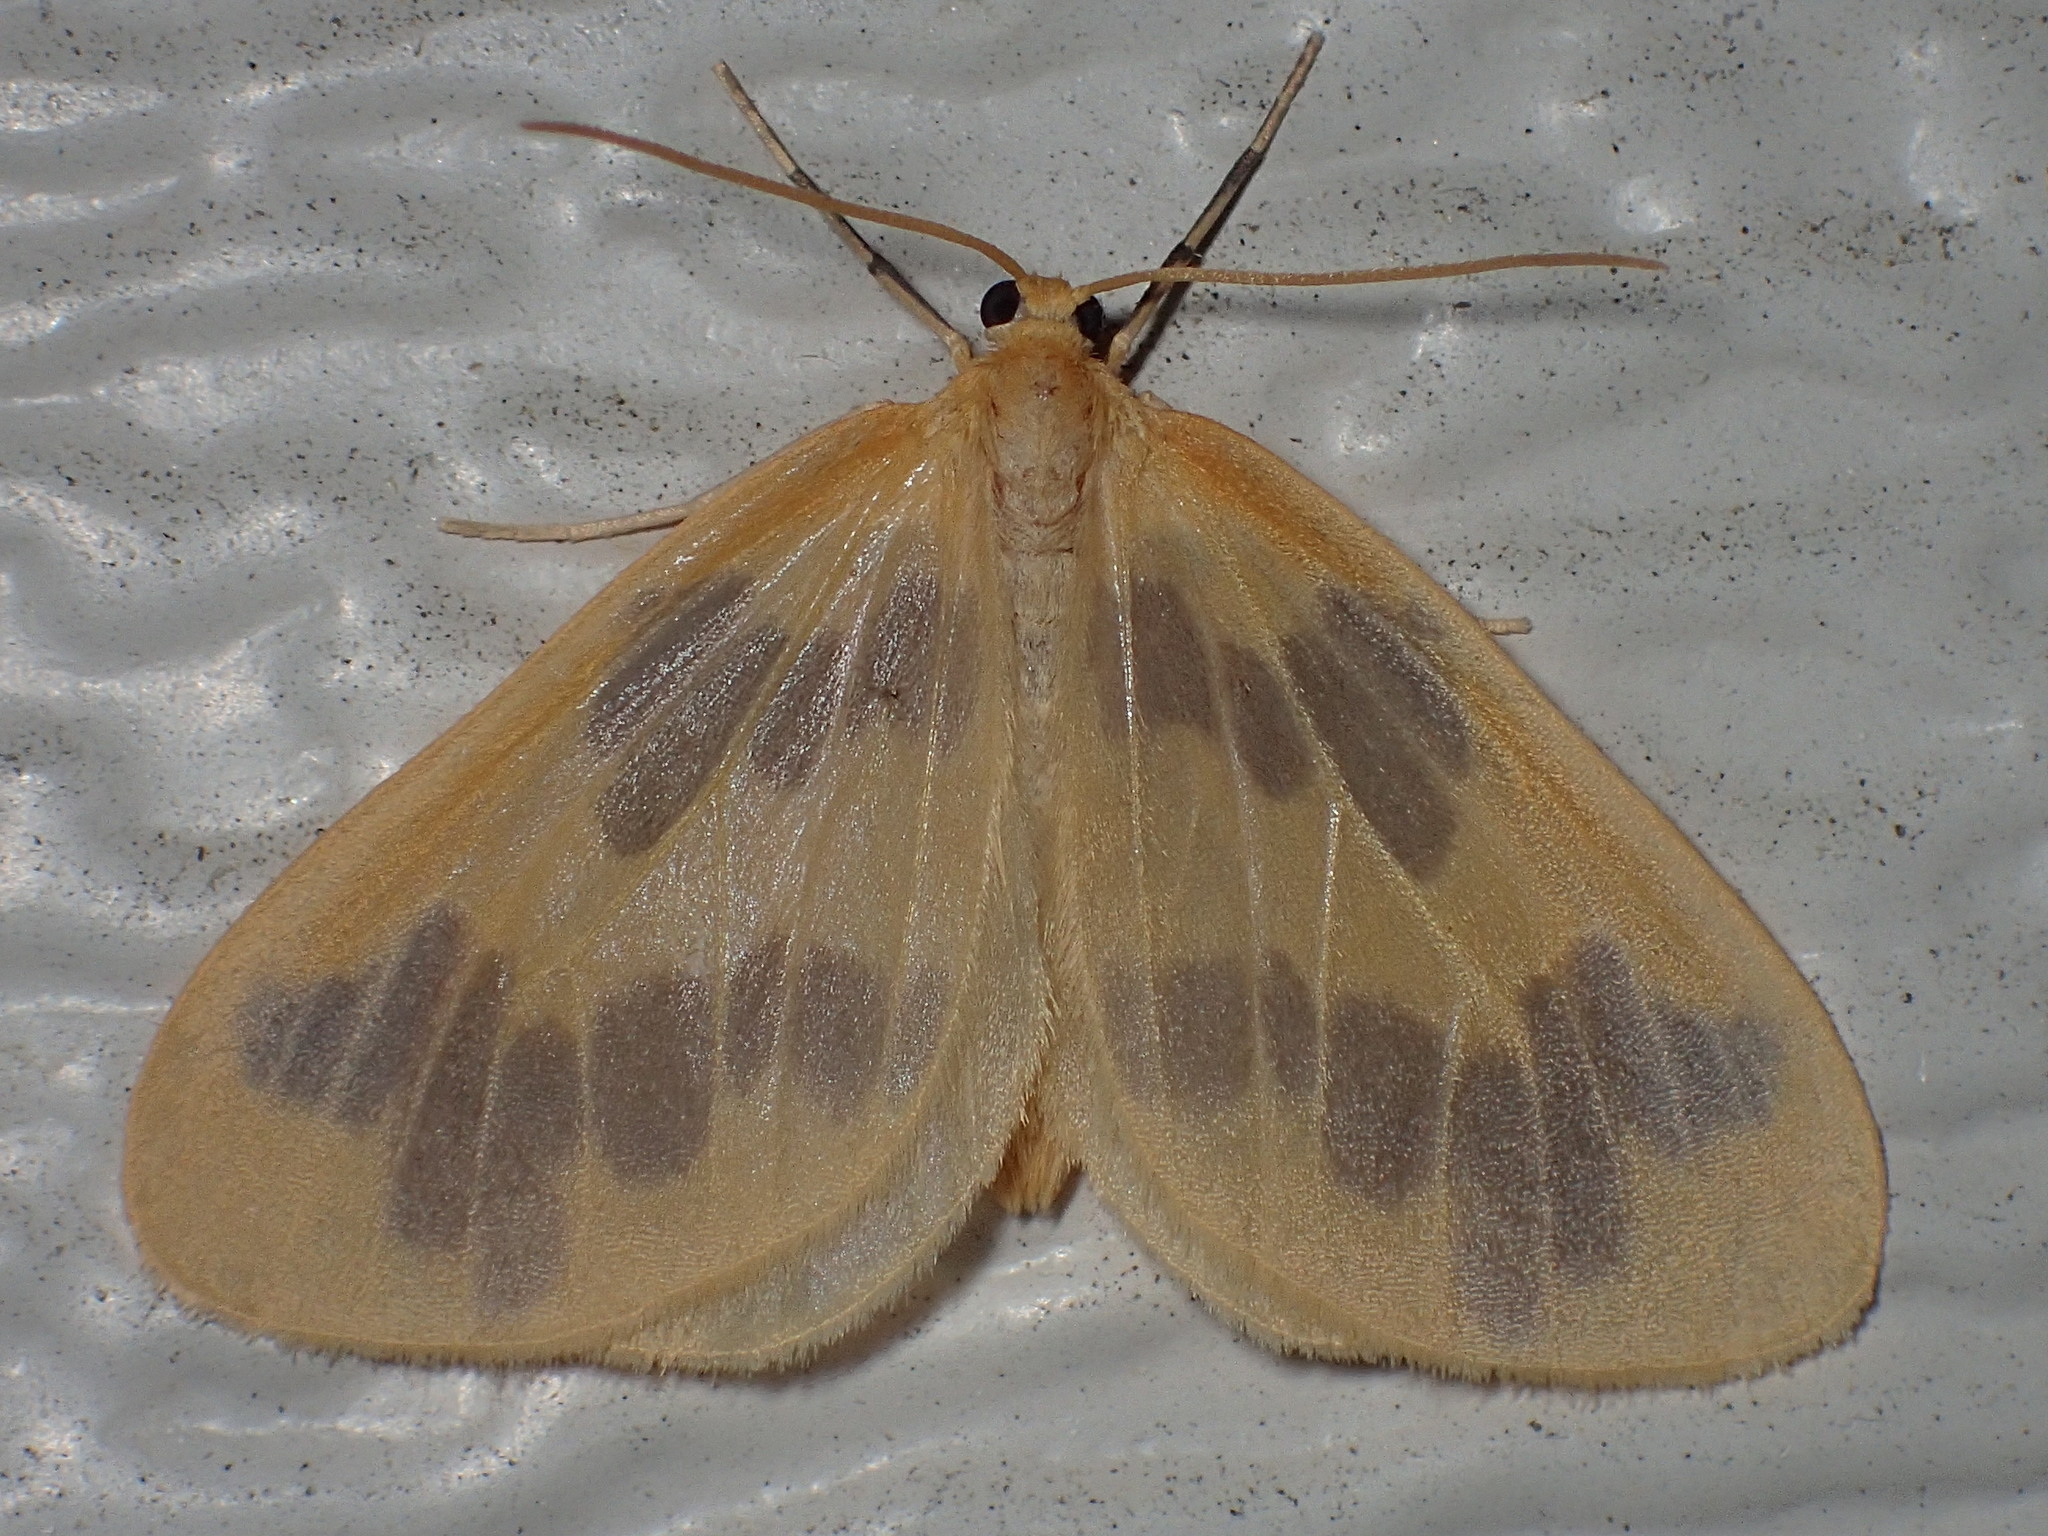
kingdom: Animalia
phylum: Arthropoda
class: Insecta
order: Lepidoptera
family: Geometridae
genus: Eubaphe
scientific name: Eubaphe mendica
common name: Beggar
